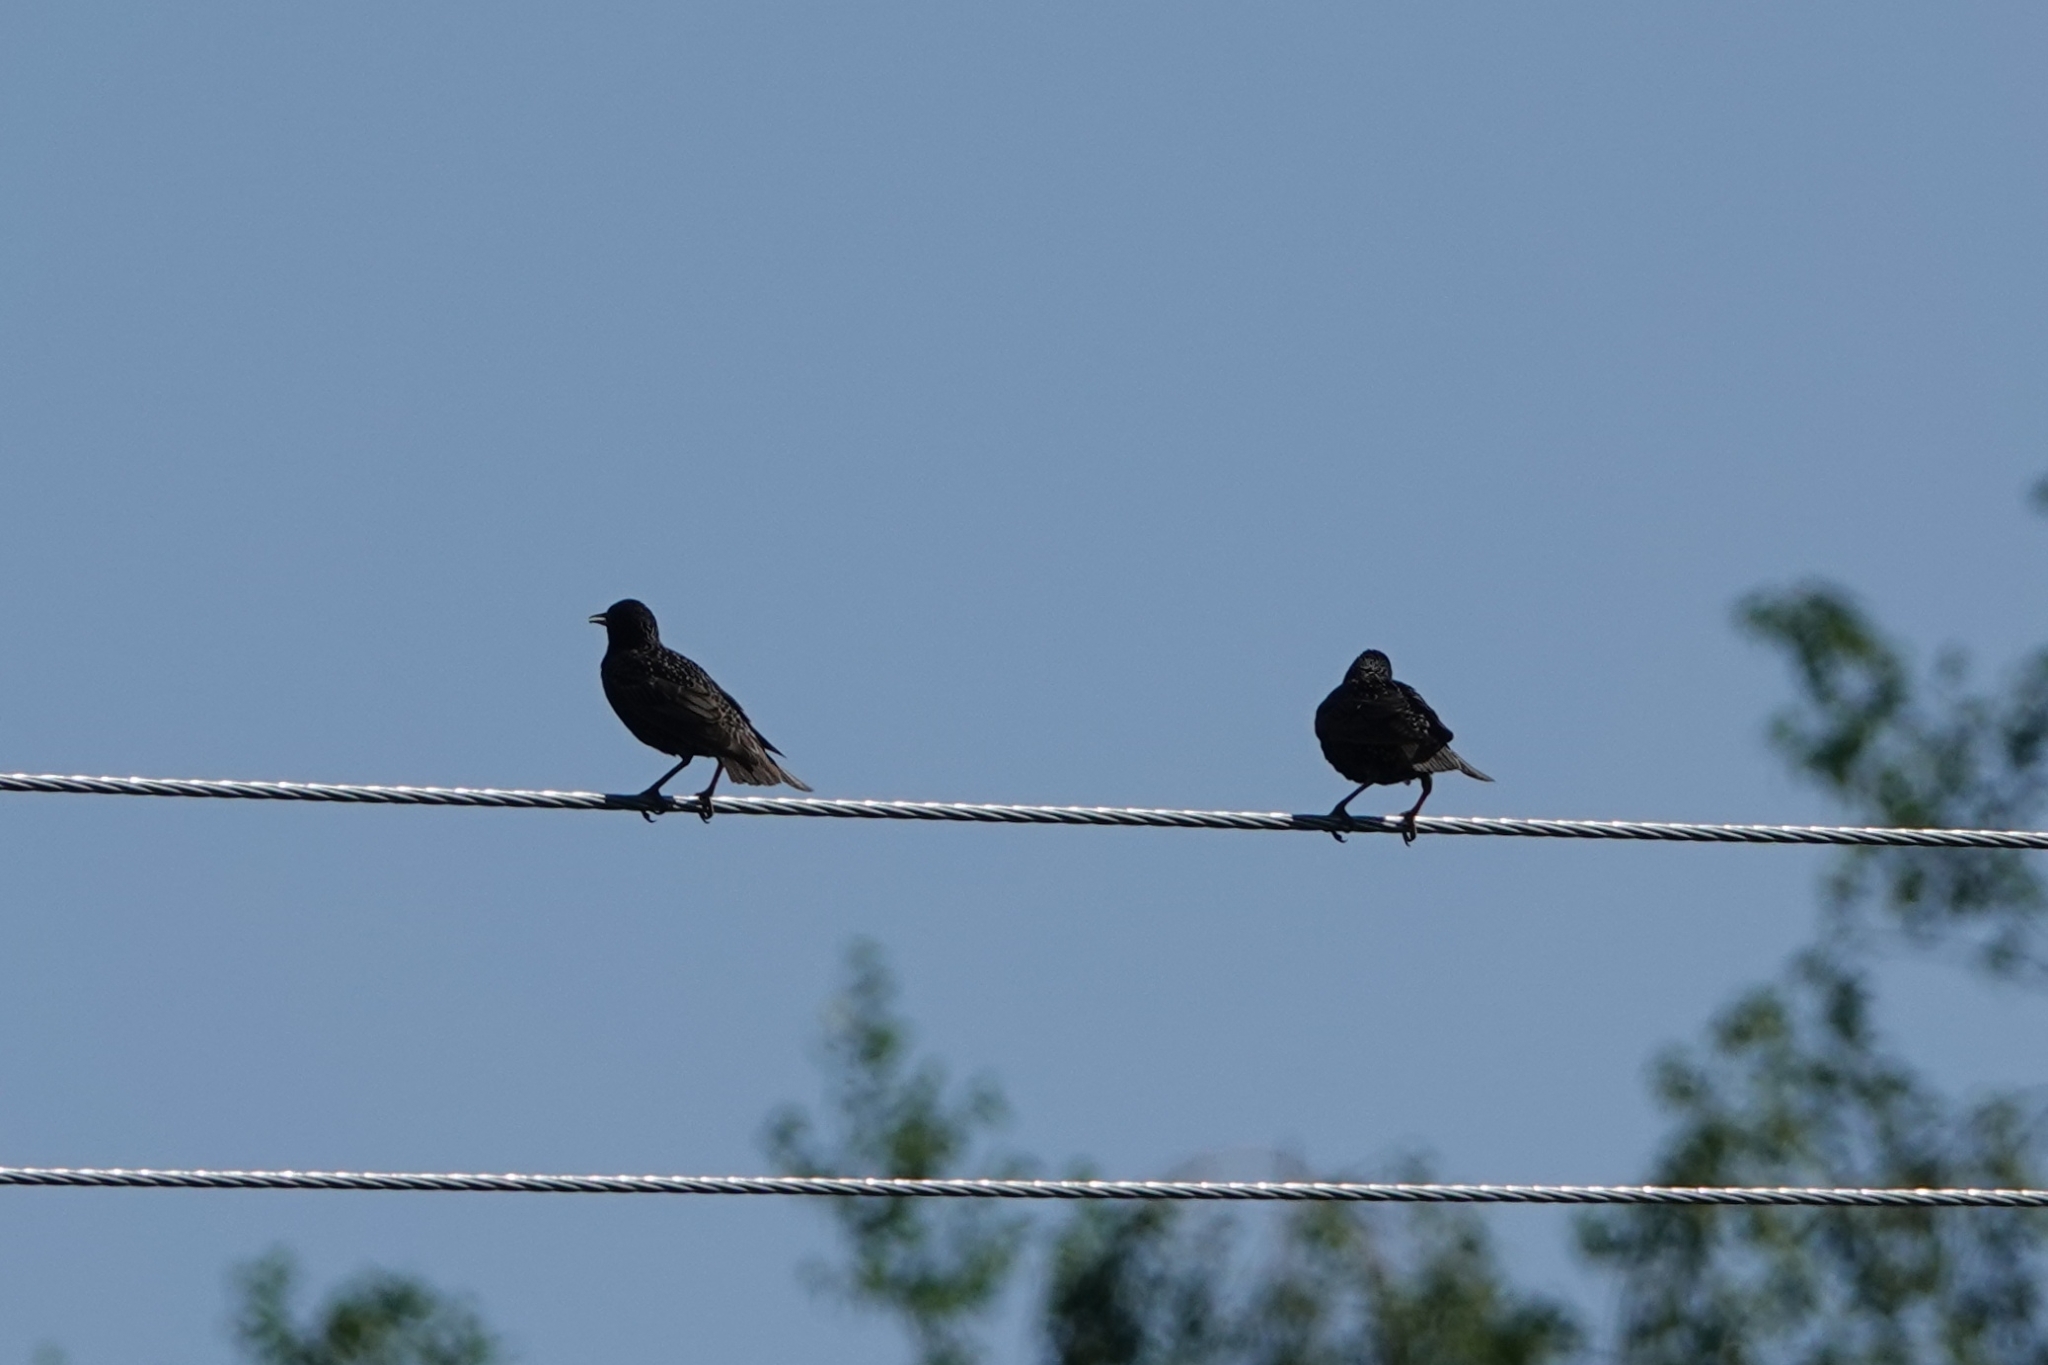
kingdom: Animalia
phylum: Chordata
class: Aves
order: Passeriformes
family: Sturnidae
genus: Sturnus
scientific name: Sturnus vulgaris
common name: Common starling
